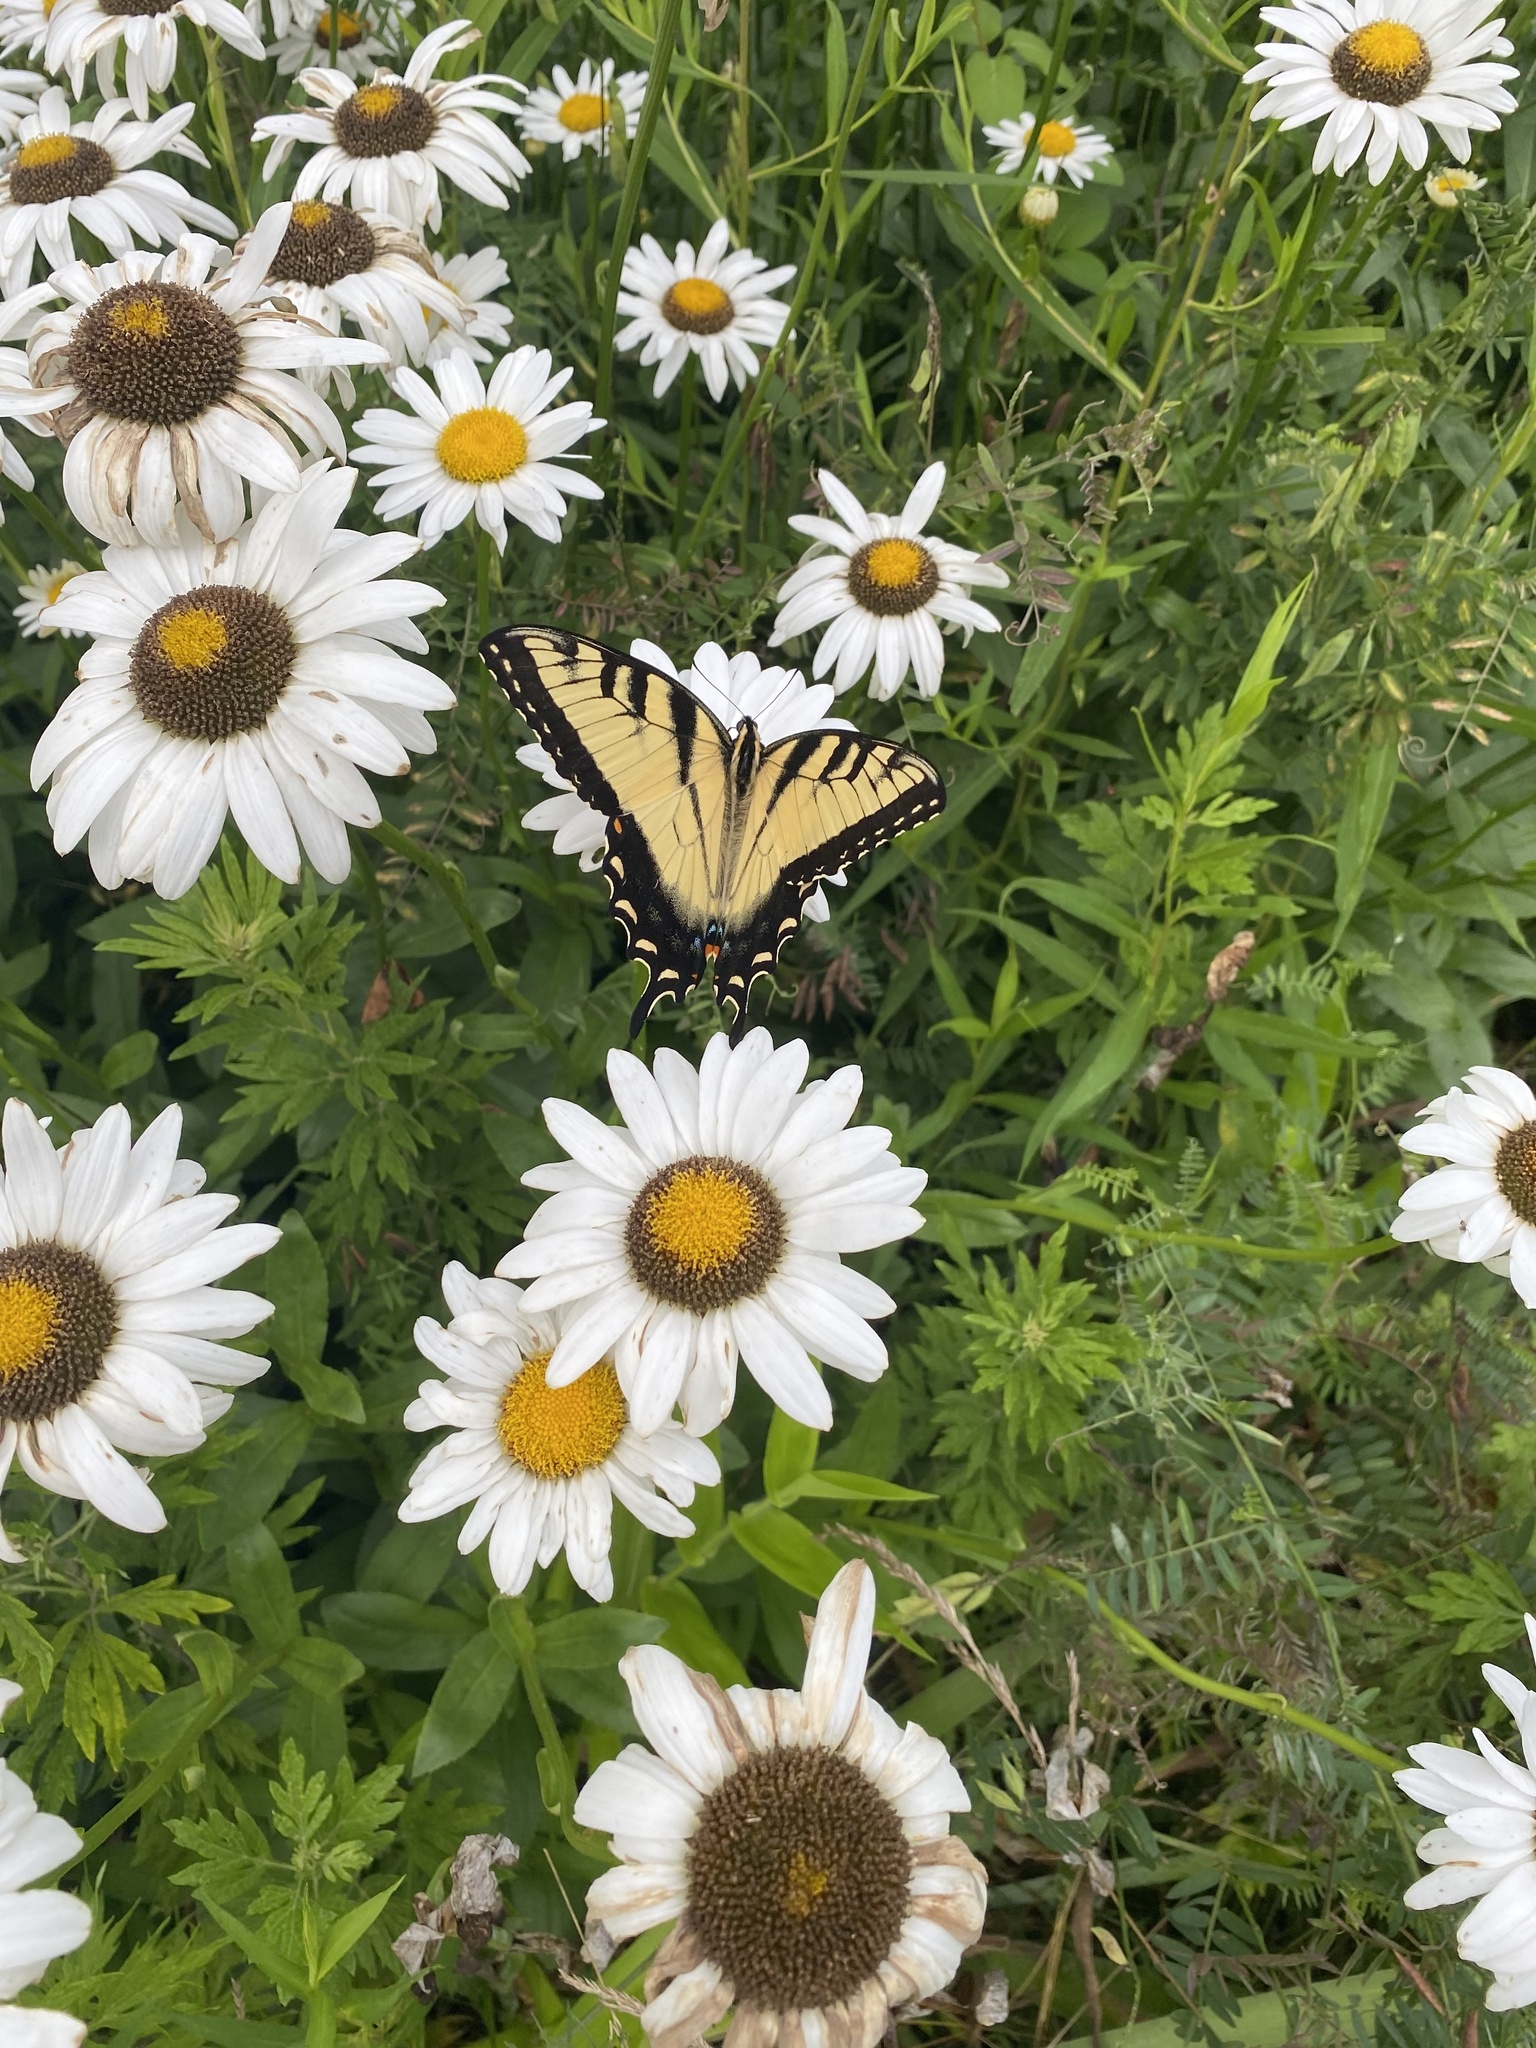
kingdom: Animalia
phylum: Arthropoda
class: Insecta
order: Lepidoptera
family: Papilionidae
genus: Papilio
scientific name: Papilio glaucus
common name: Tiger swallowtail
